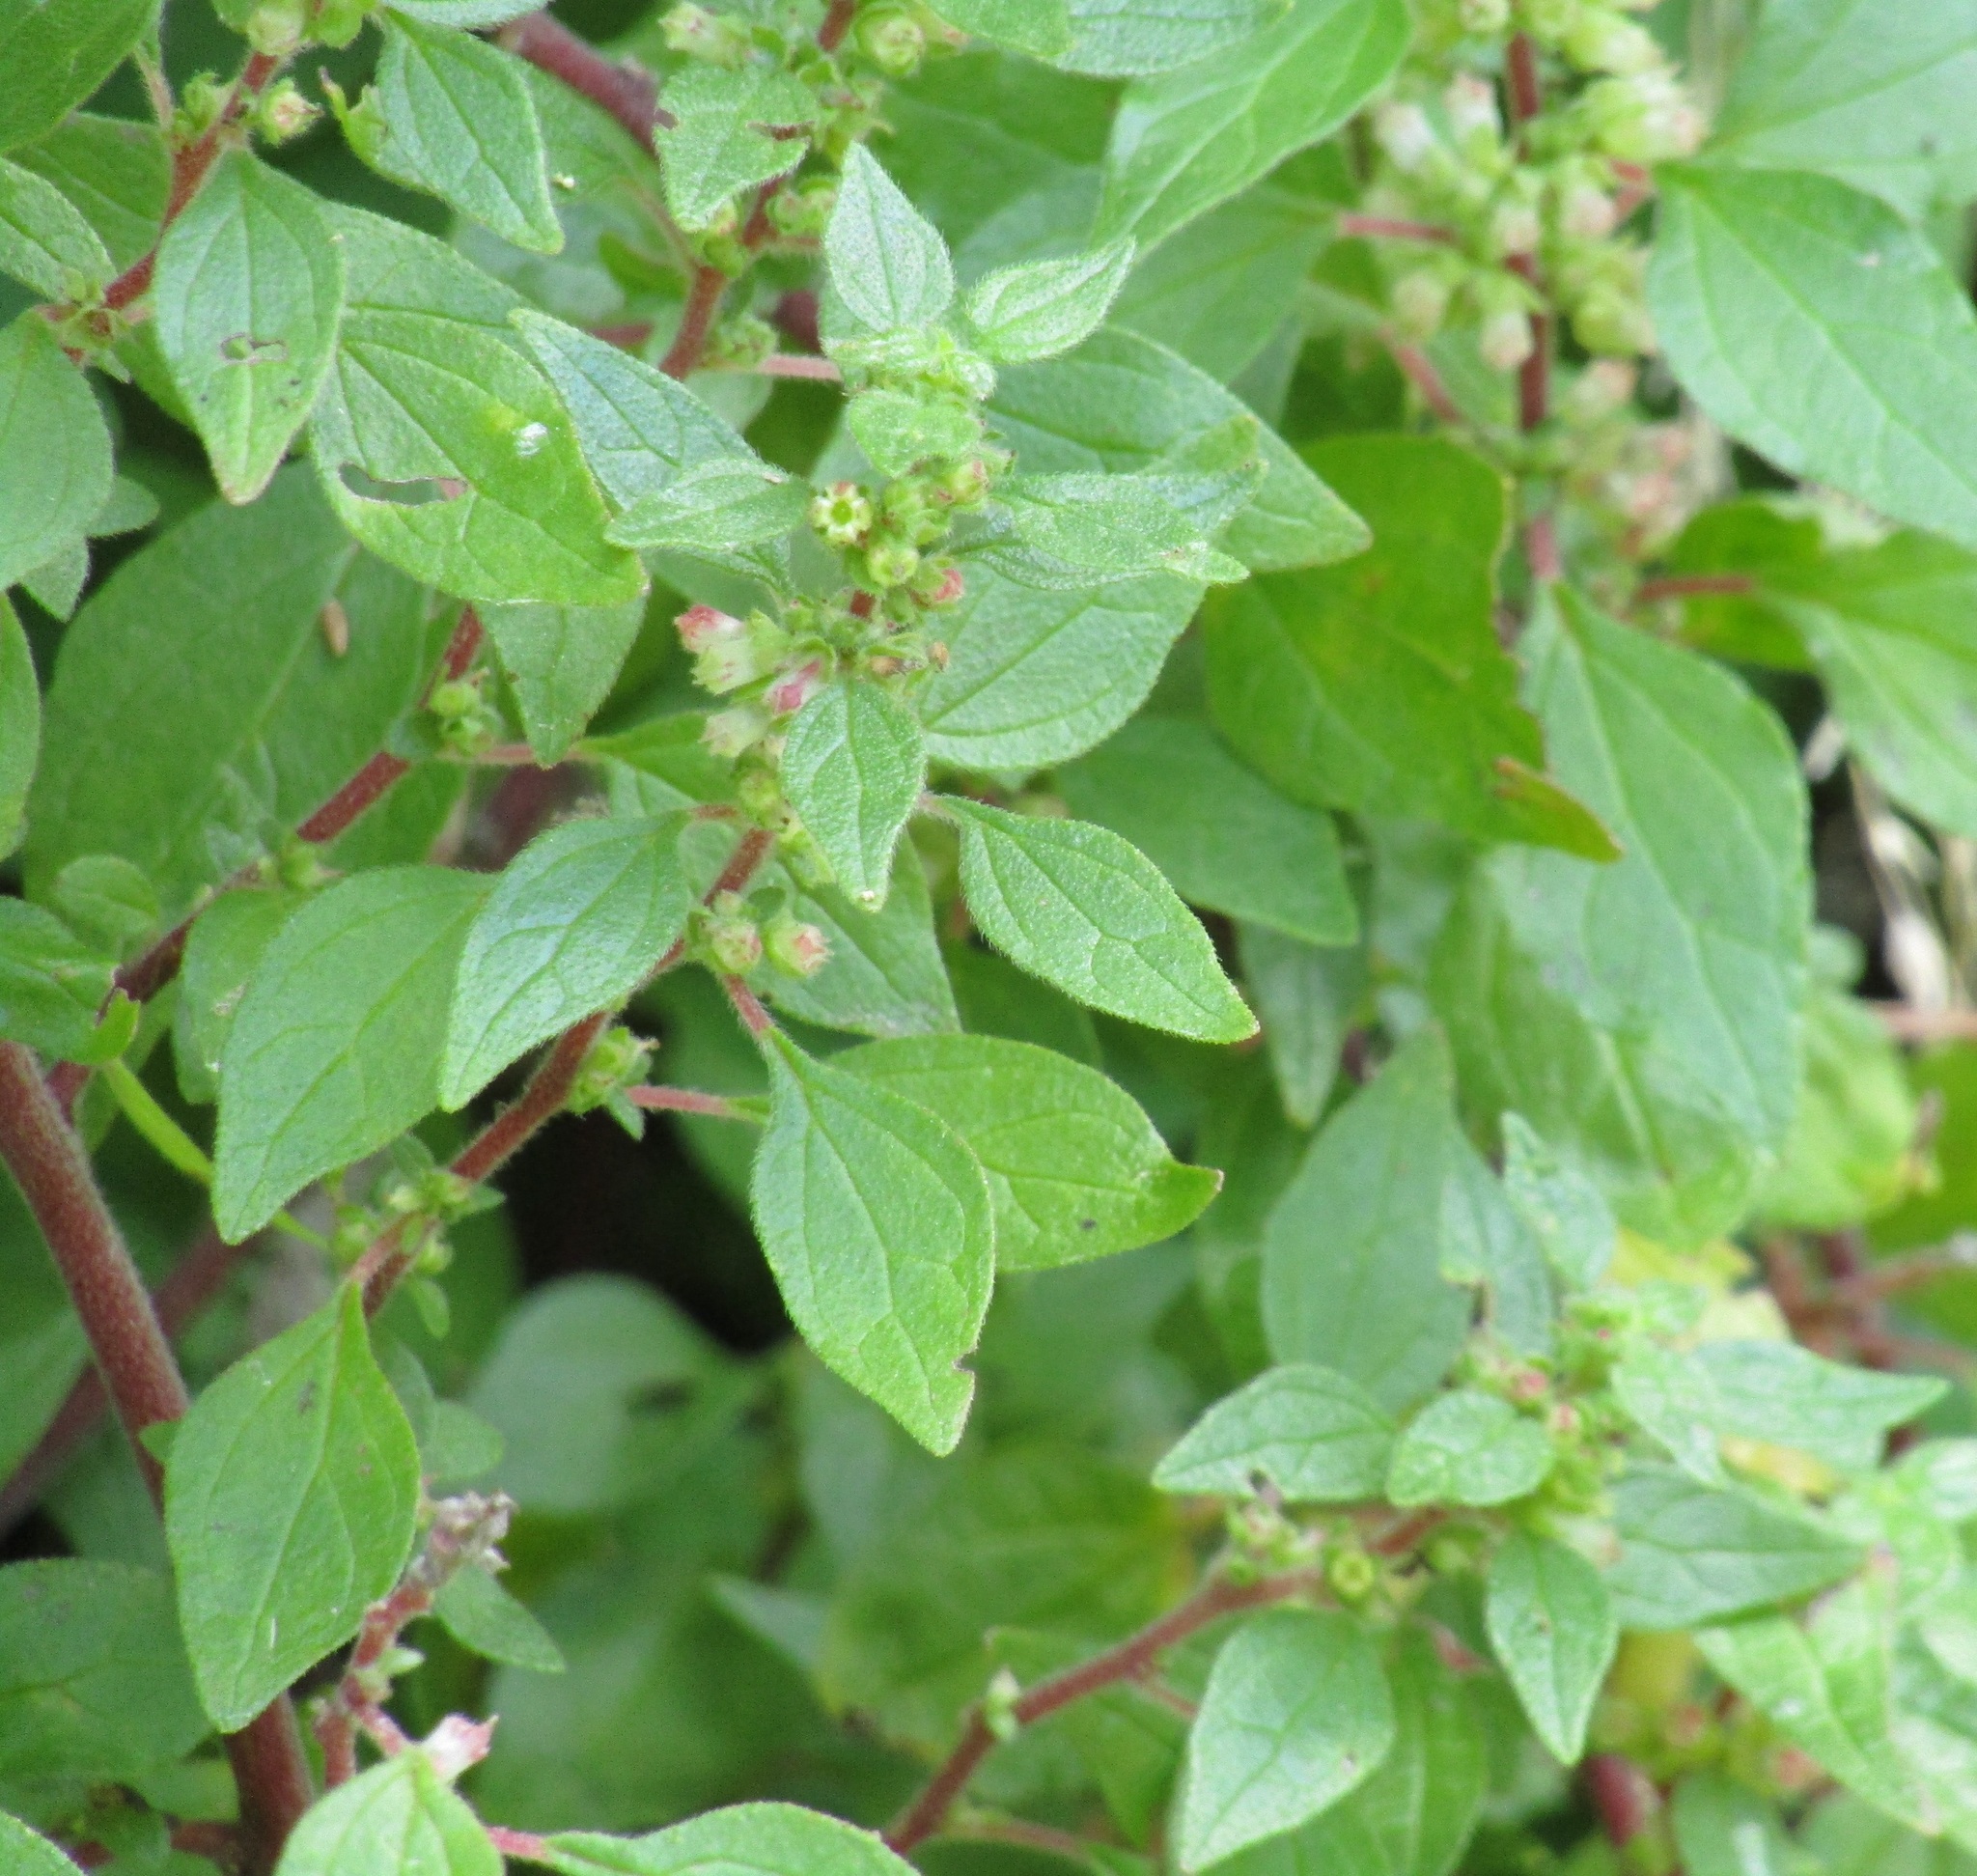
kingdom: Plantae
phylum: Tracheophyta
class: Magnoliopsida
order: Rosales
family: Urticaceae
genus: Parietaria
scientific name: Parietaria judaica
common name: Pellitory-of-the-wall
